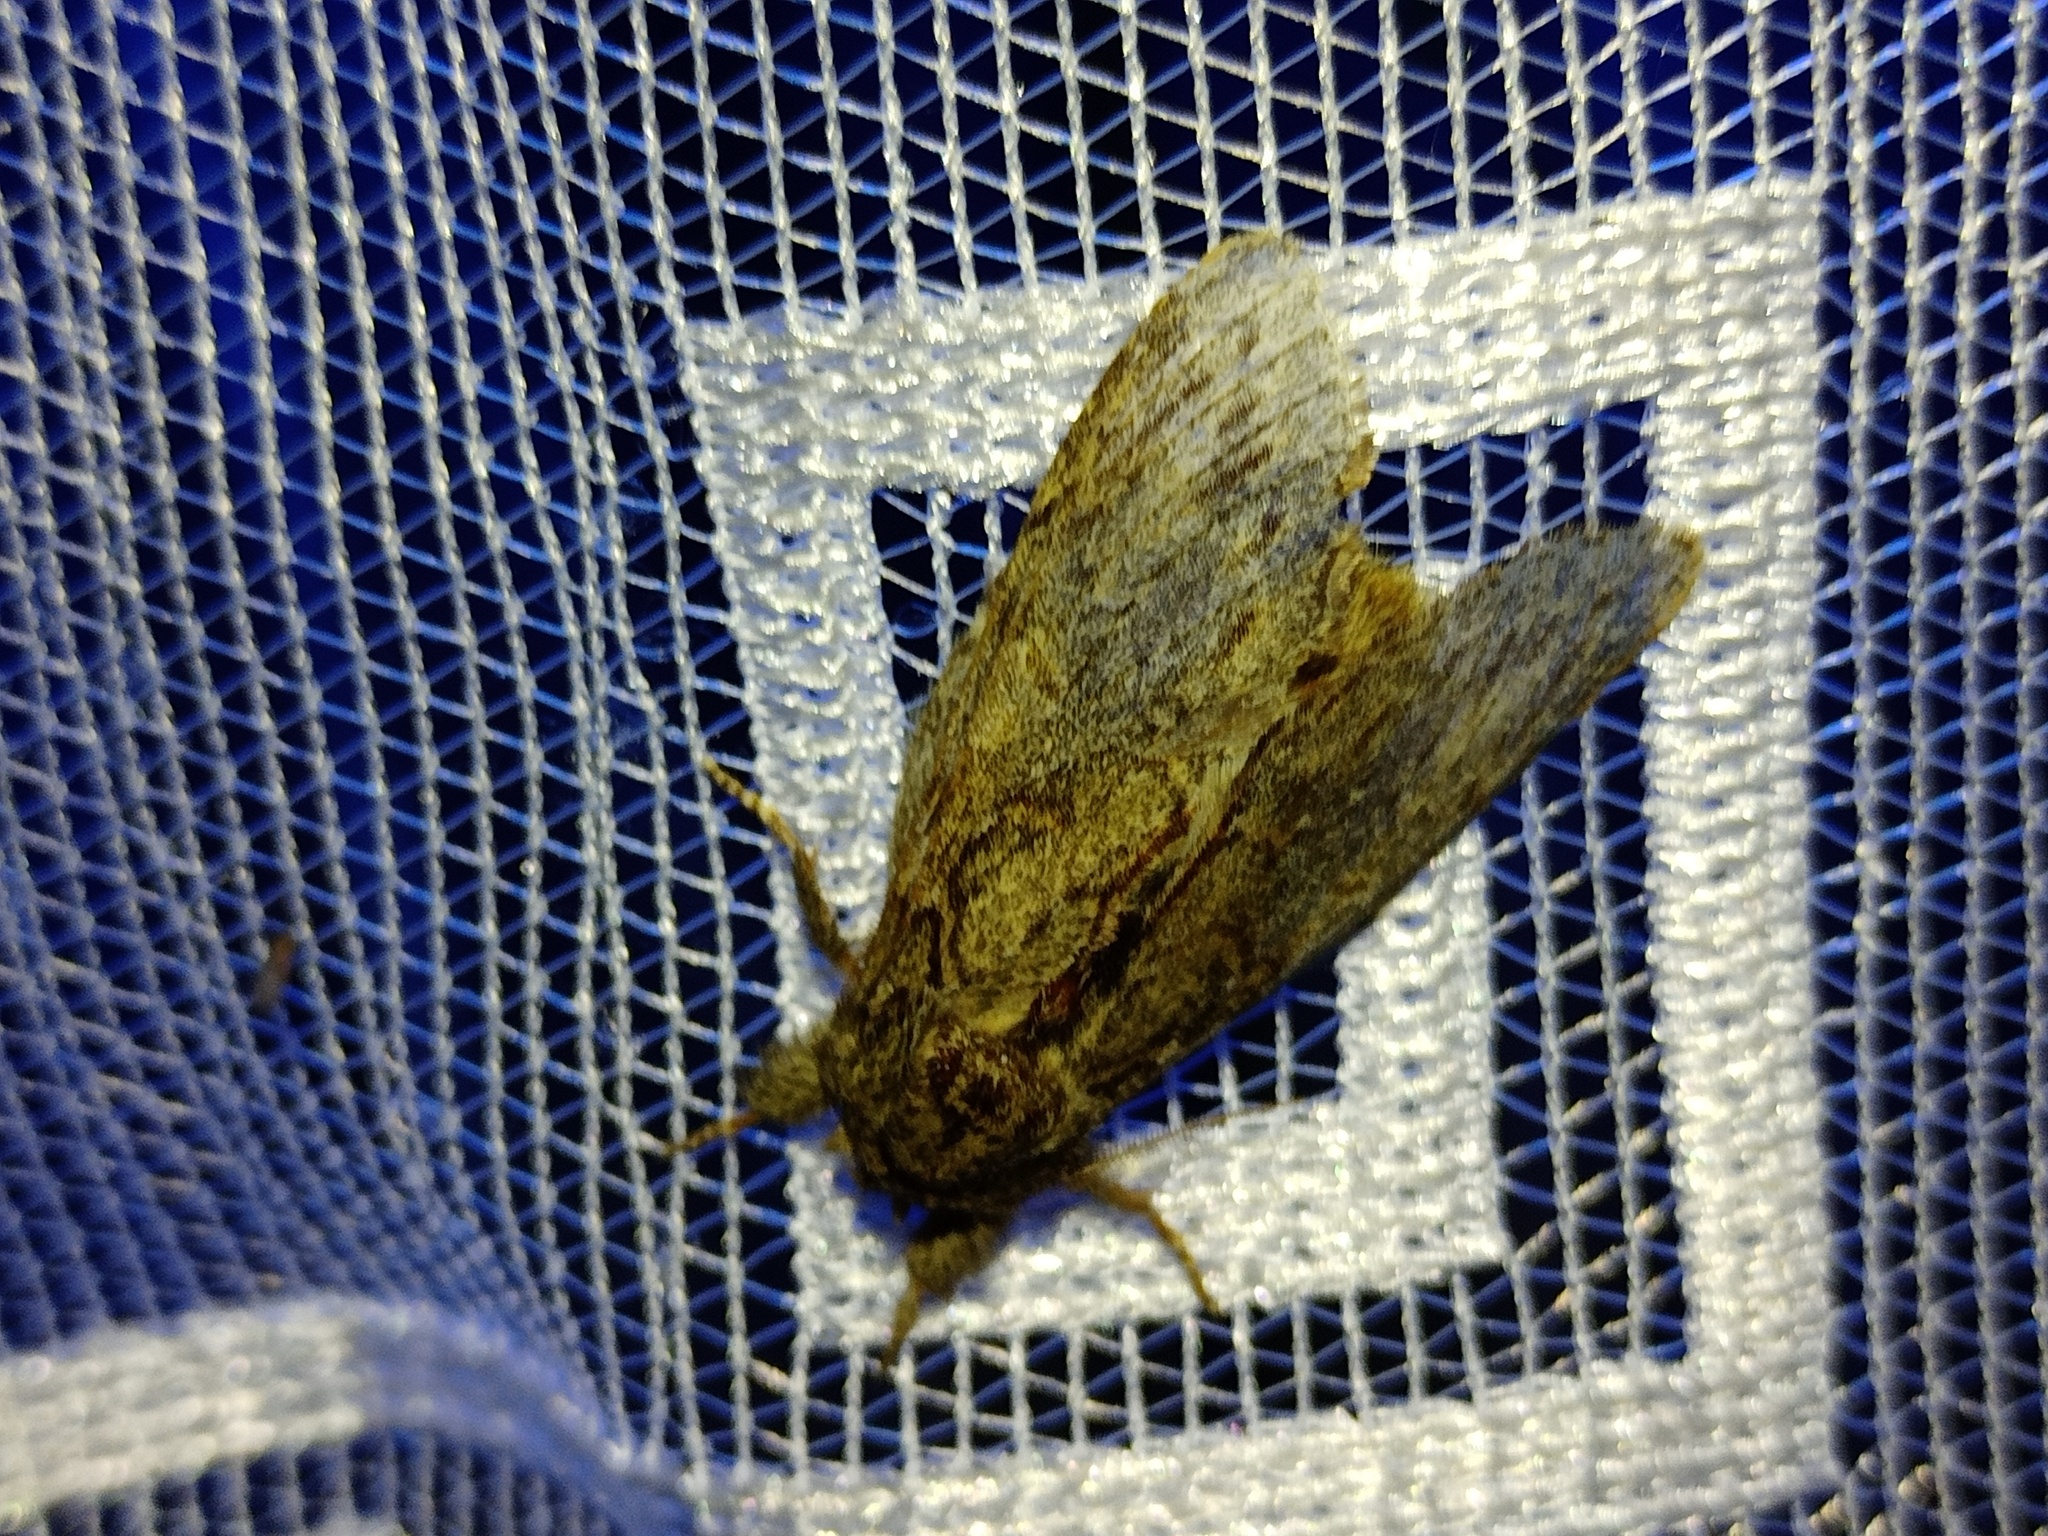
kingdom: Animalia
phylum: Arthropoda
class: Insecta
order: Lepidoptera
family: Notodontidae
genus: Peridea
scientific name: Peridea anceps
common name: Great prominent
